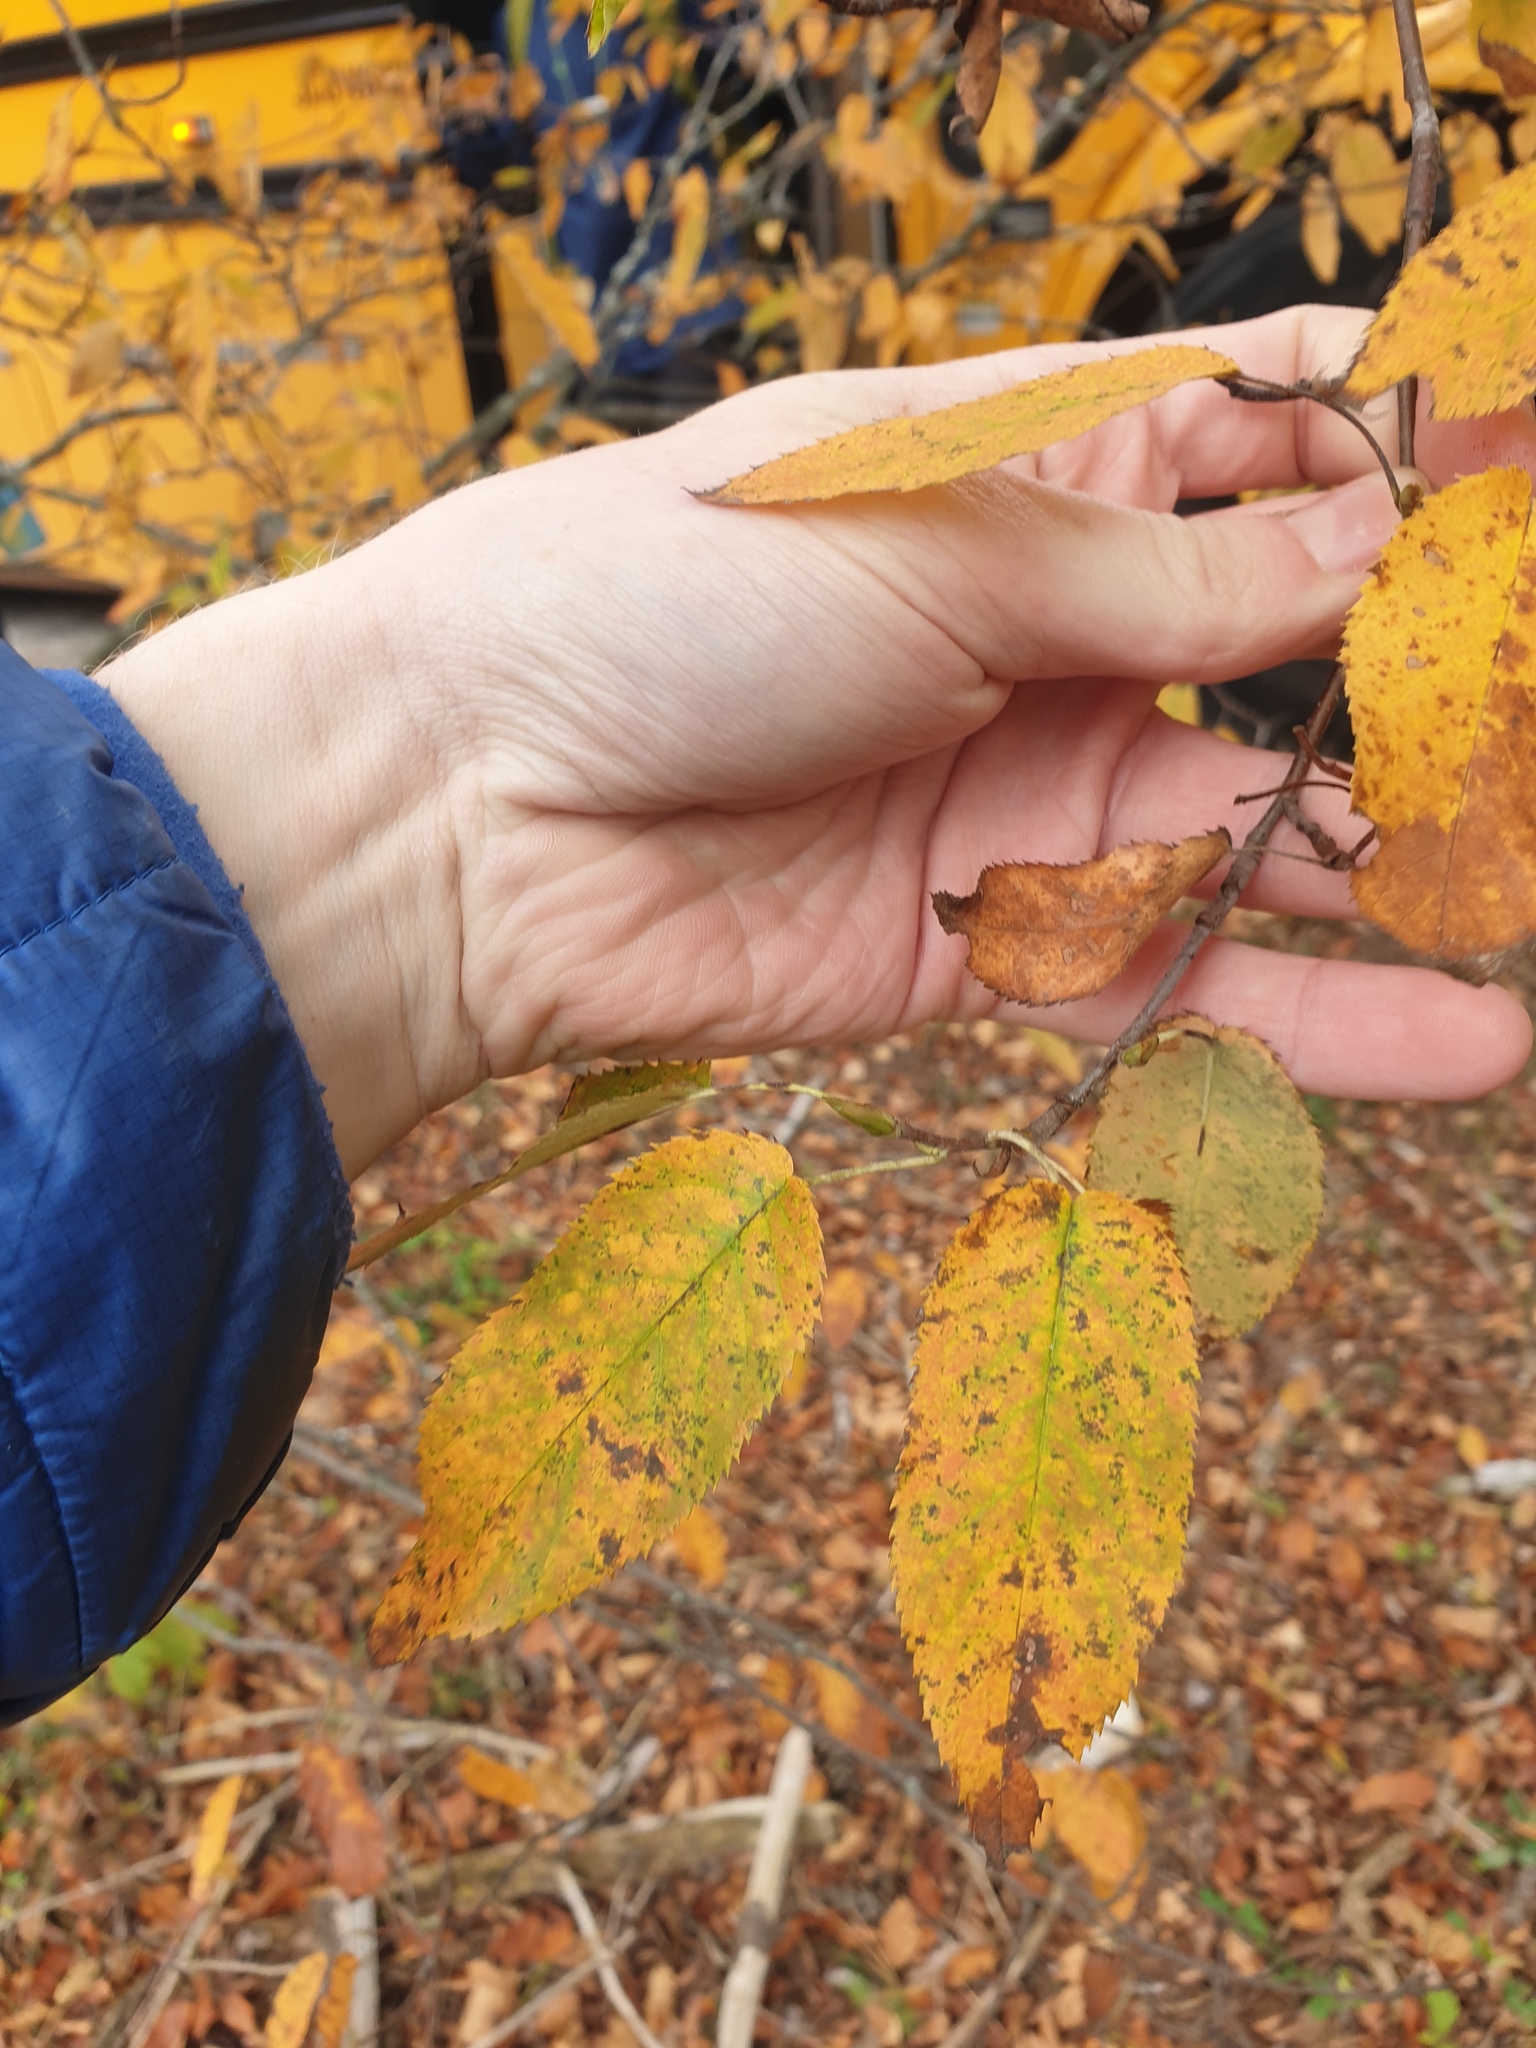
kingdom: Plantae
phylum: Tracheophyta
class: Magnoliopsida
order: Rosales
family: Rosaceae
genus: Amelanchier
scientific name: Amelanchier canadensis
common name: Thicket serviceberry
